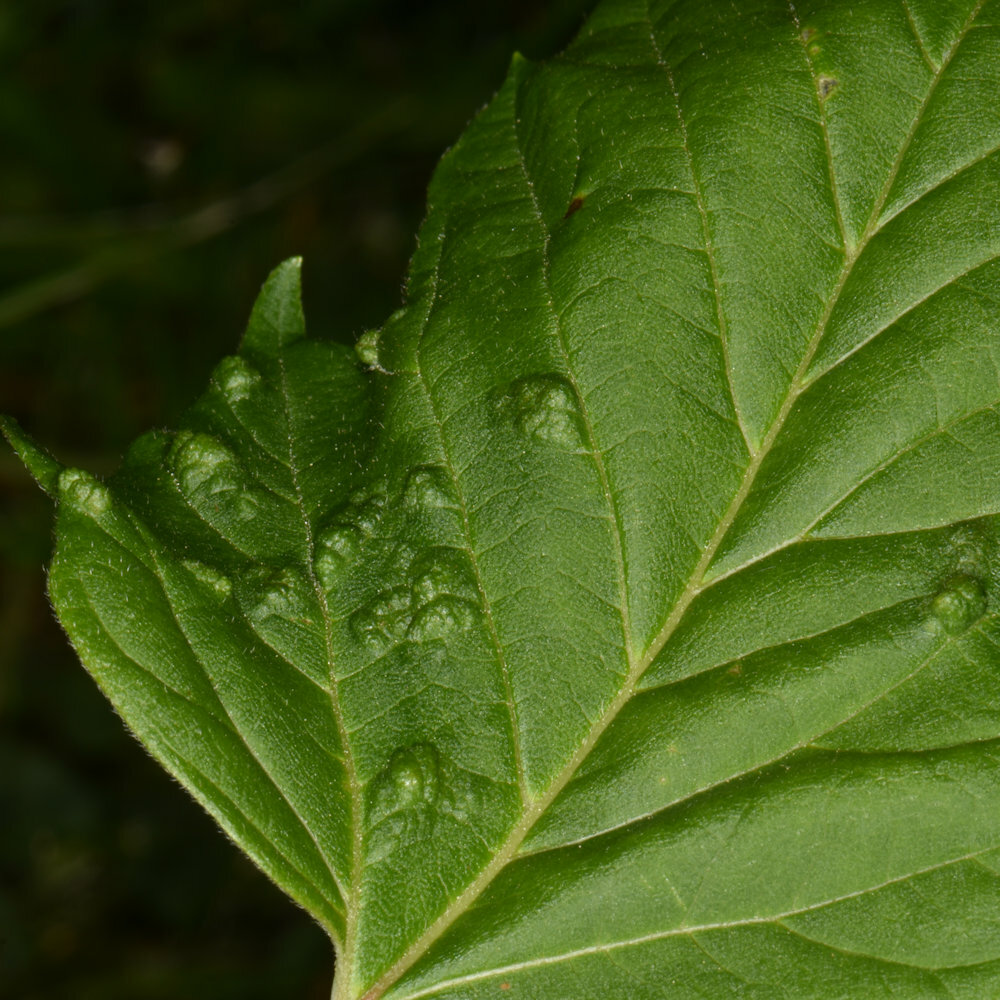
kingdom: Animalia
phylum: Arthropoda
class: Arachnida
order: Trombidiformes
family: Eriophyidae
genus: Aceria
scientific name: Aceria
